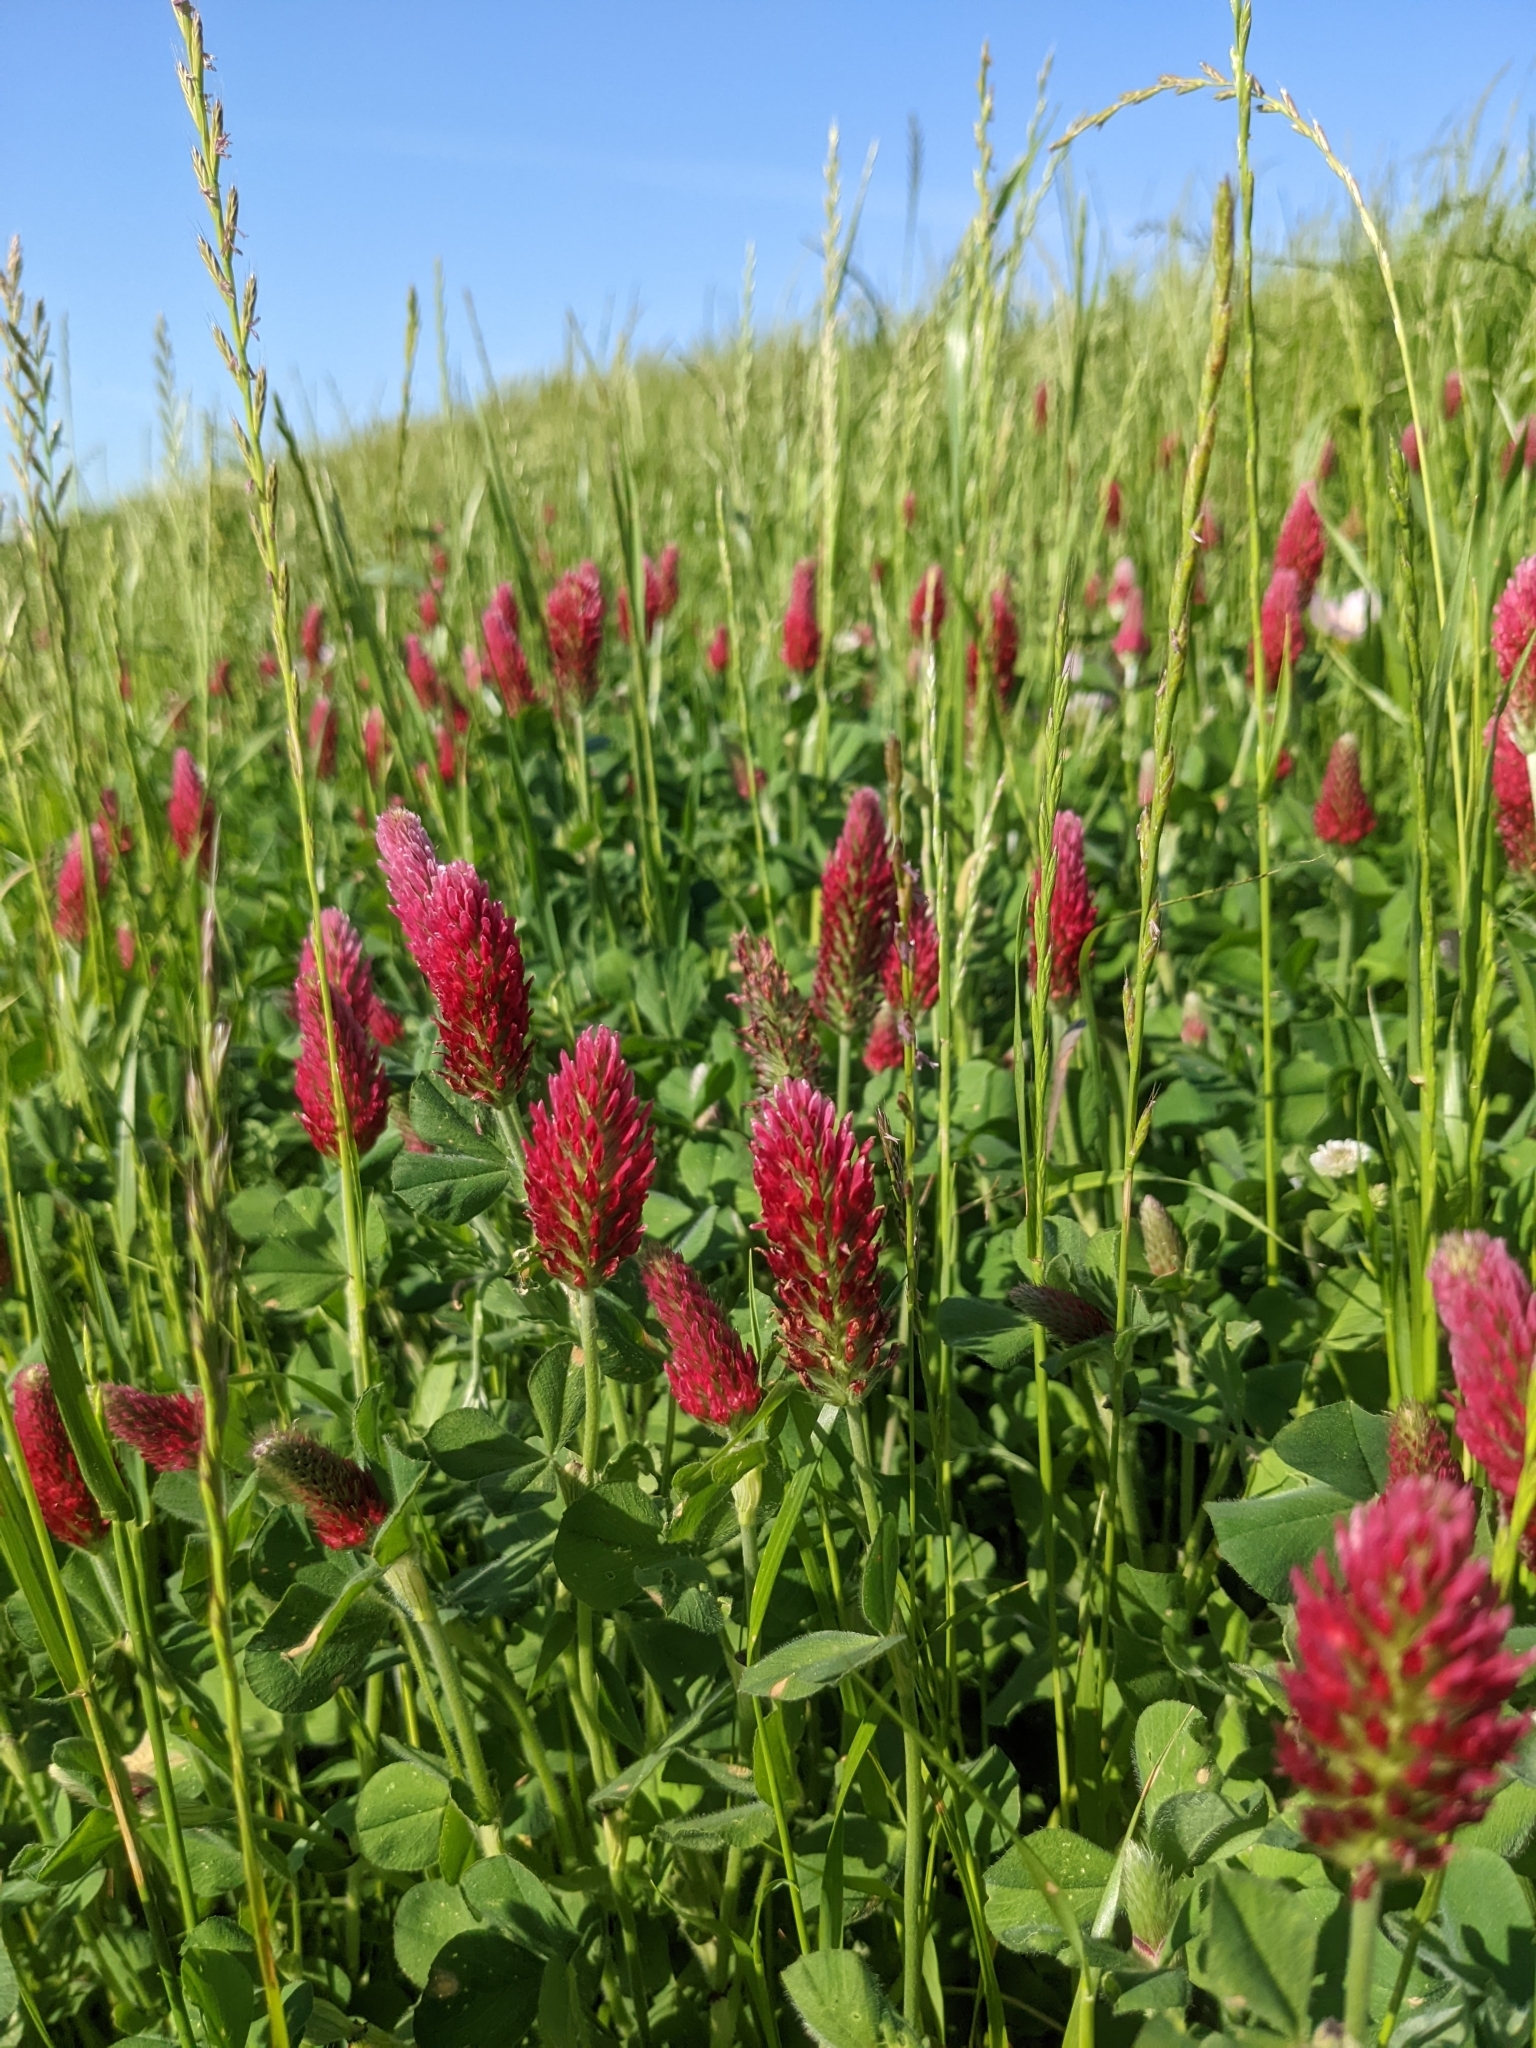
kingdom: Plantae
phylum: Tracheophyta
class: Magnoliopsida
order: Fabales
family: Fabaceae
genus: Trifolium
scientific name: Trifolium incarnatum
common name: Crimson clover
